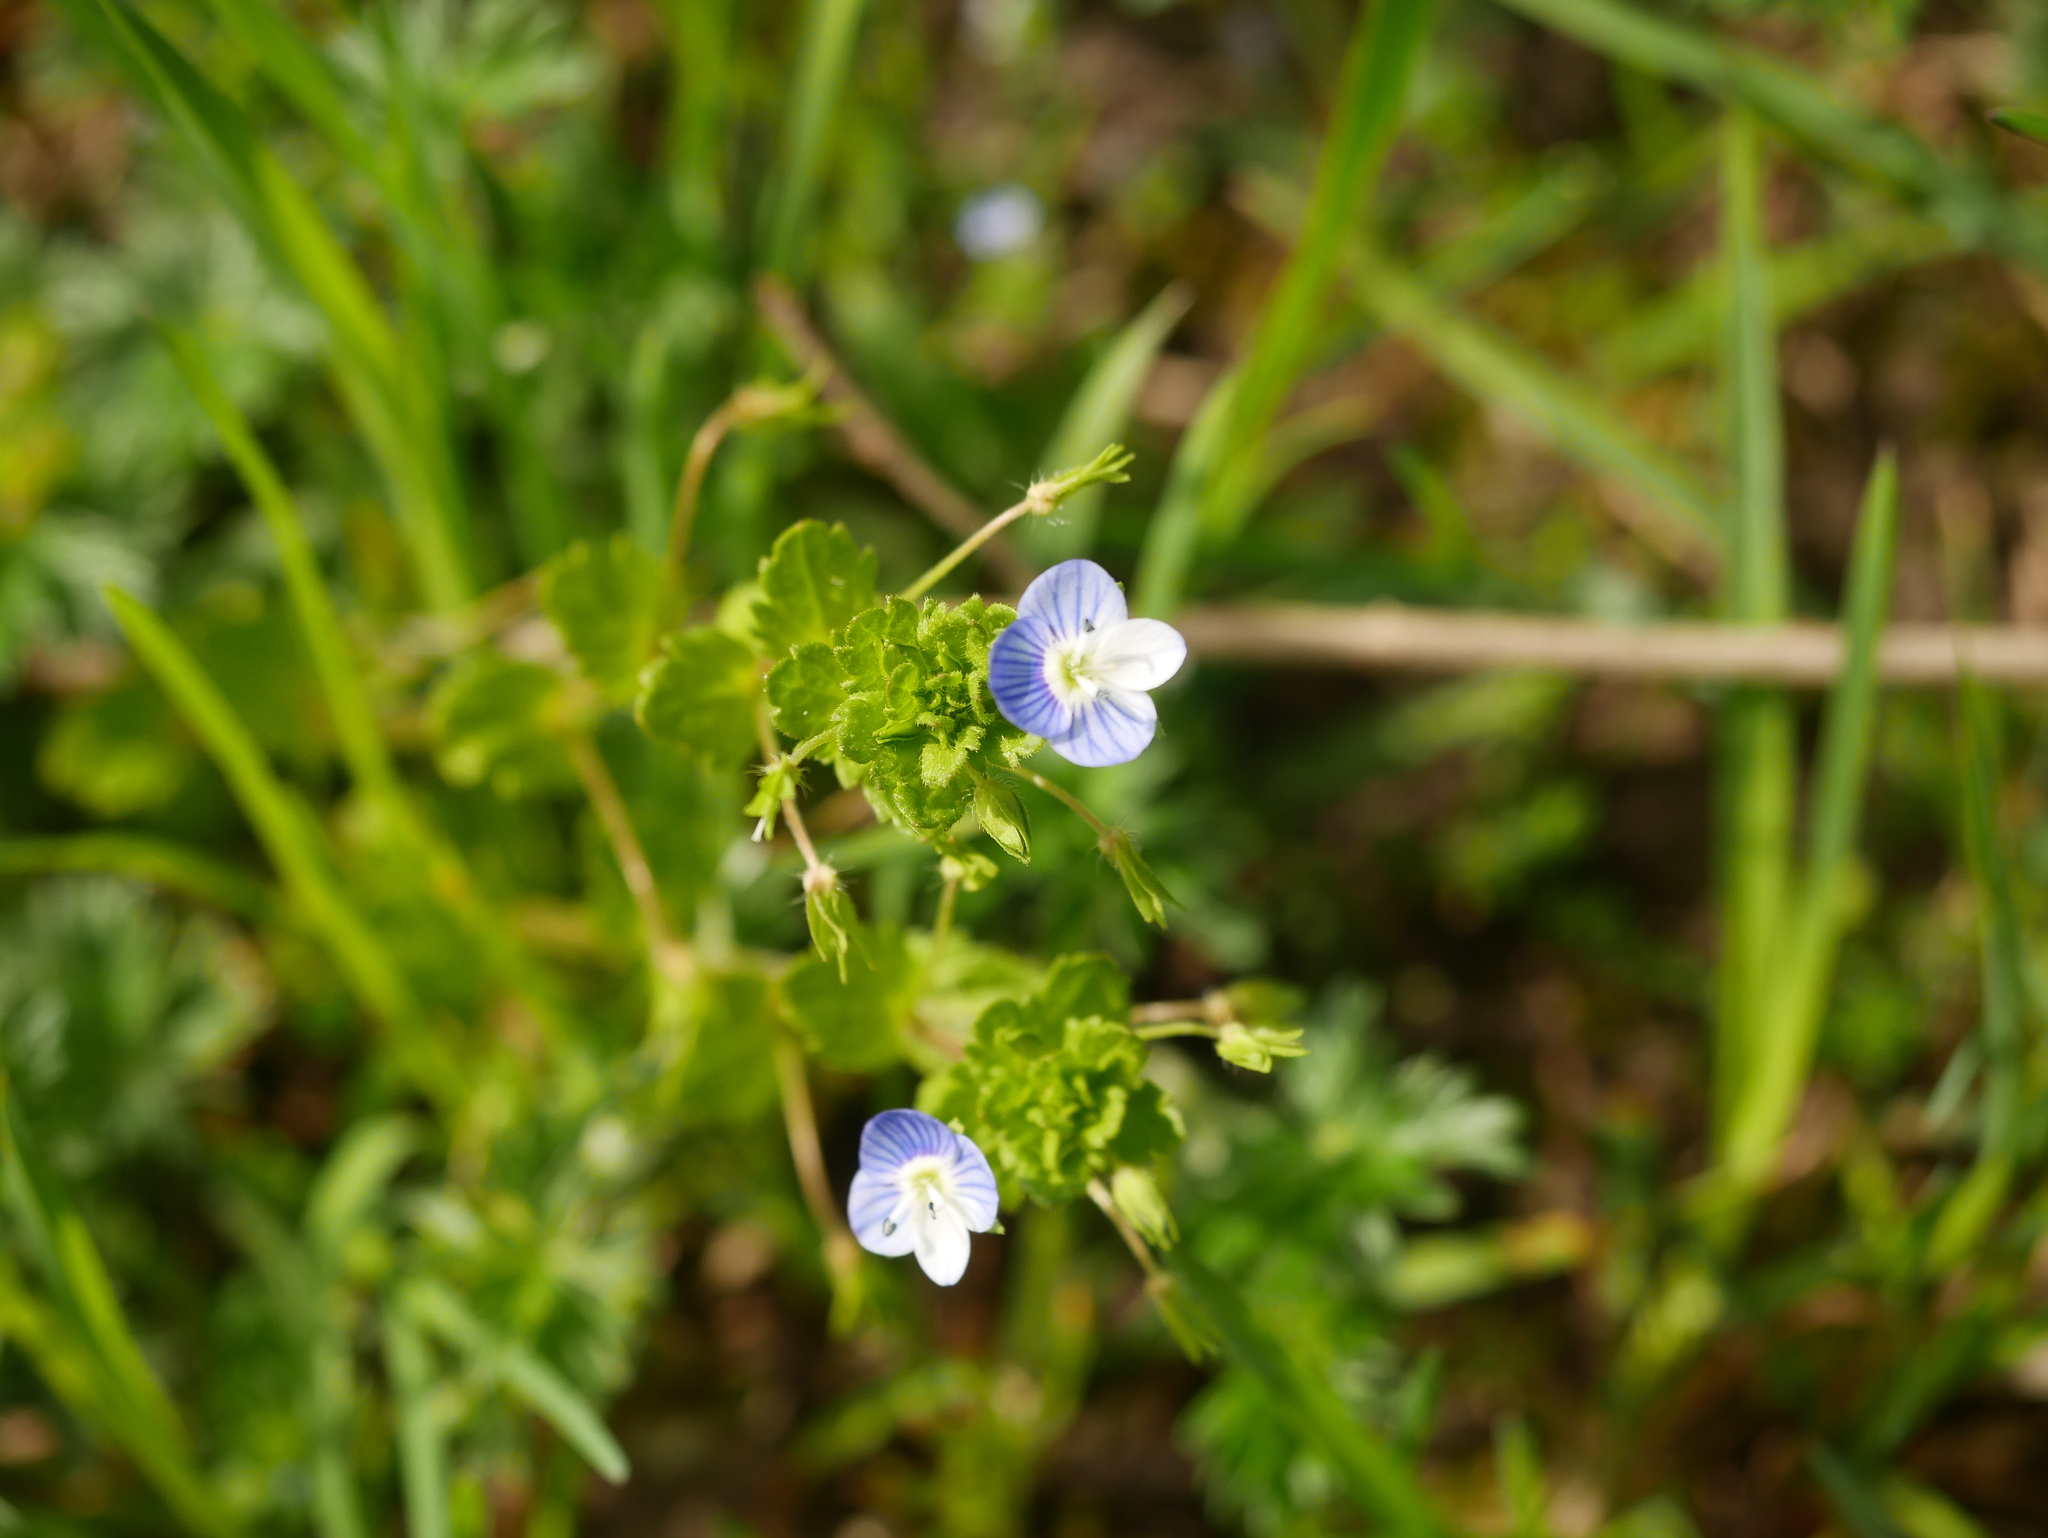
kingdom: Plantae
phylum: Tracheophyta
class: Magnoliopsida
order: Lamiales
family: Plantaginaceae
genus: Veronica
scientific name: Veronica persica
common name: Common field-speedwell
